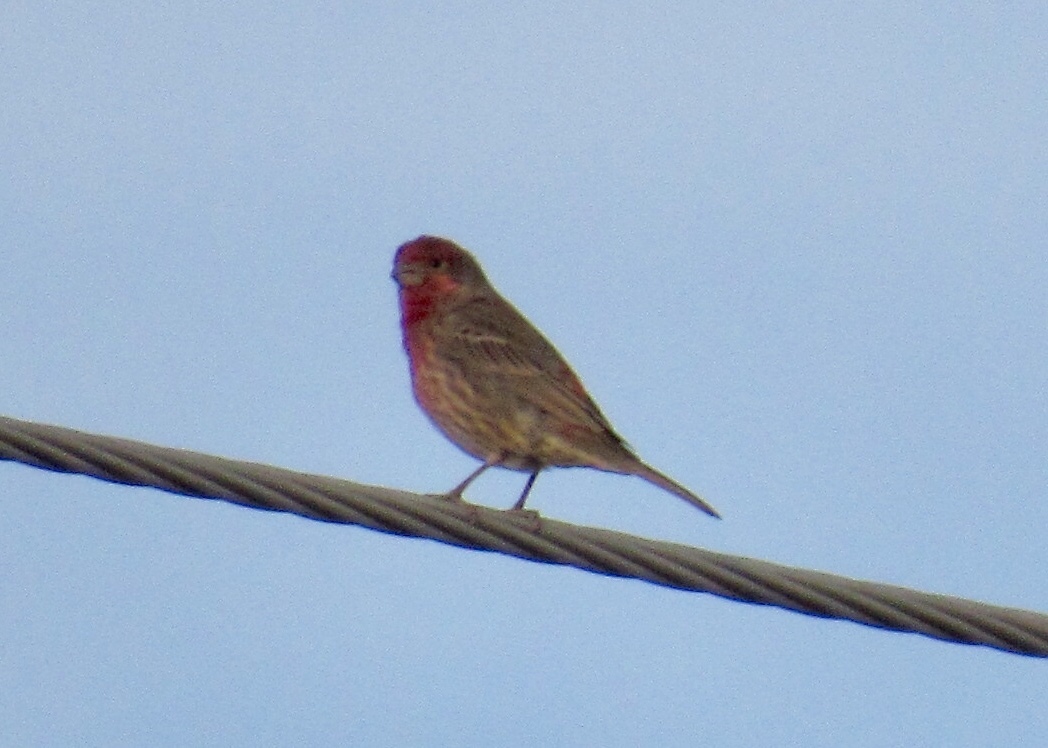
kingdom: Animalia
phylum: Chordata
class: Aves
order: Passeriformes
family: Fringillidae
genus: Haemorhous
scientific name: Haemorhous mexicanus
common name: House finch
